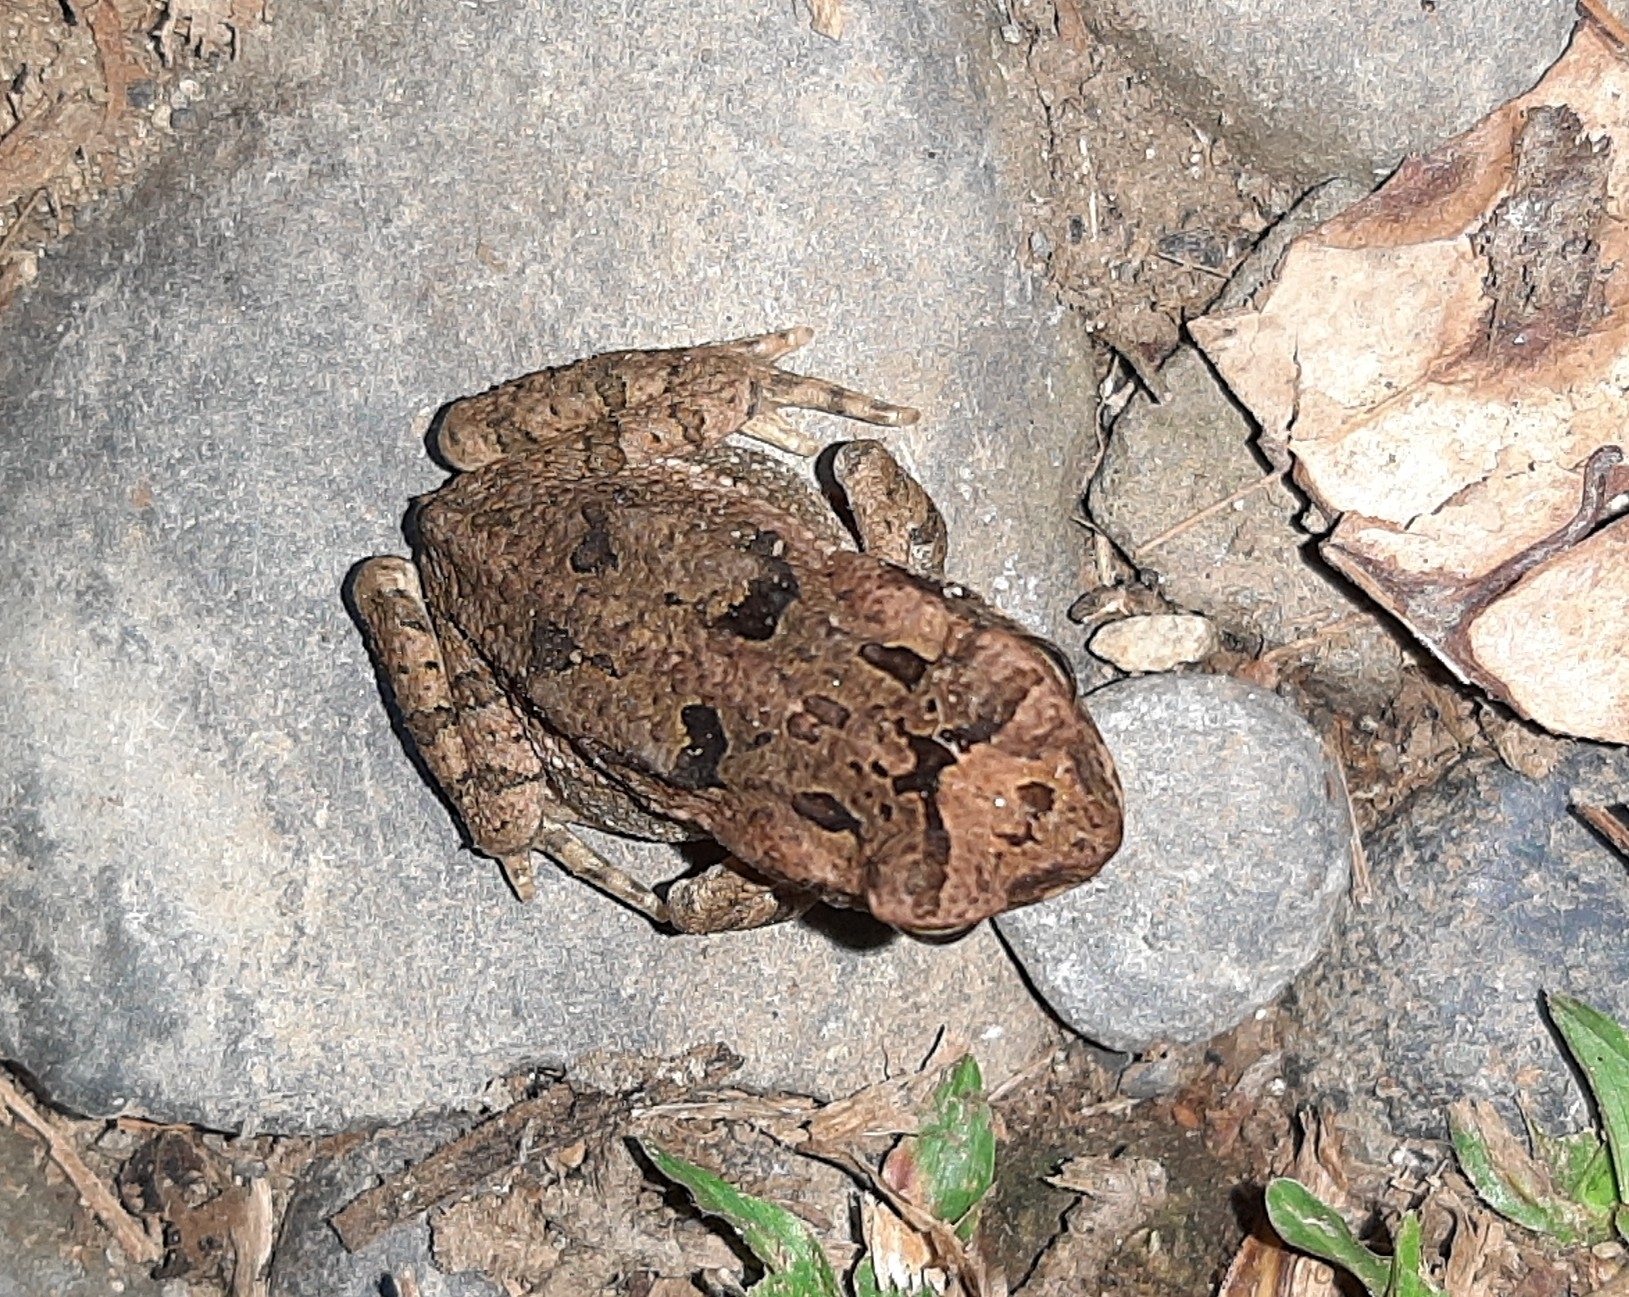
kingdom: Animalia
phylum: Chordata
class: Amphibia
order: Anura
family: Bufonidae
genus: Rhinella
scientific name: Rhinella marina
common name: Cane toad
